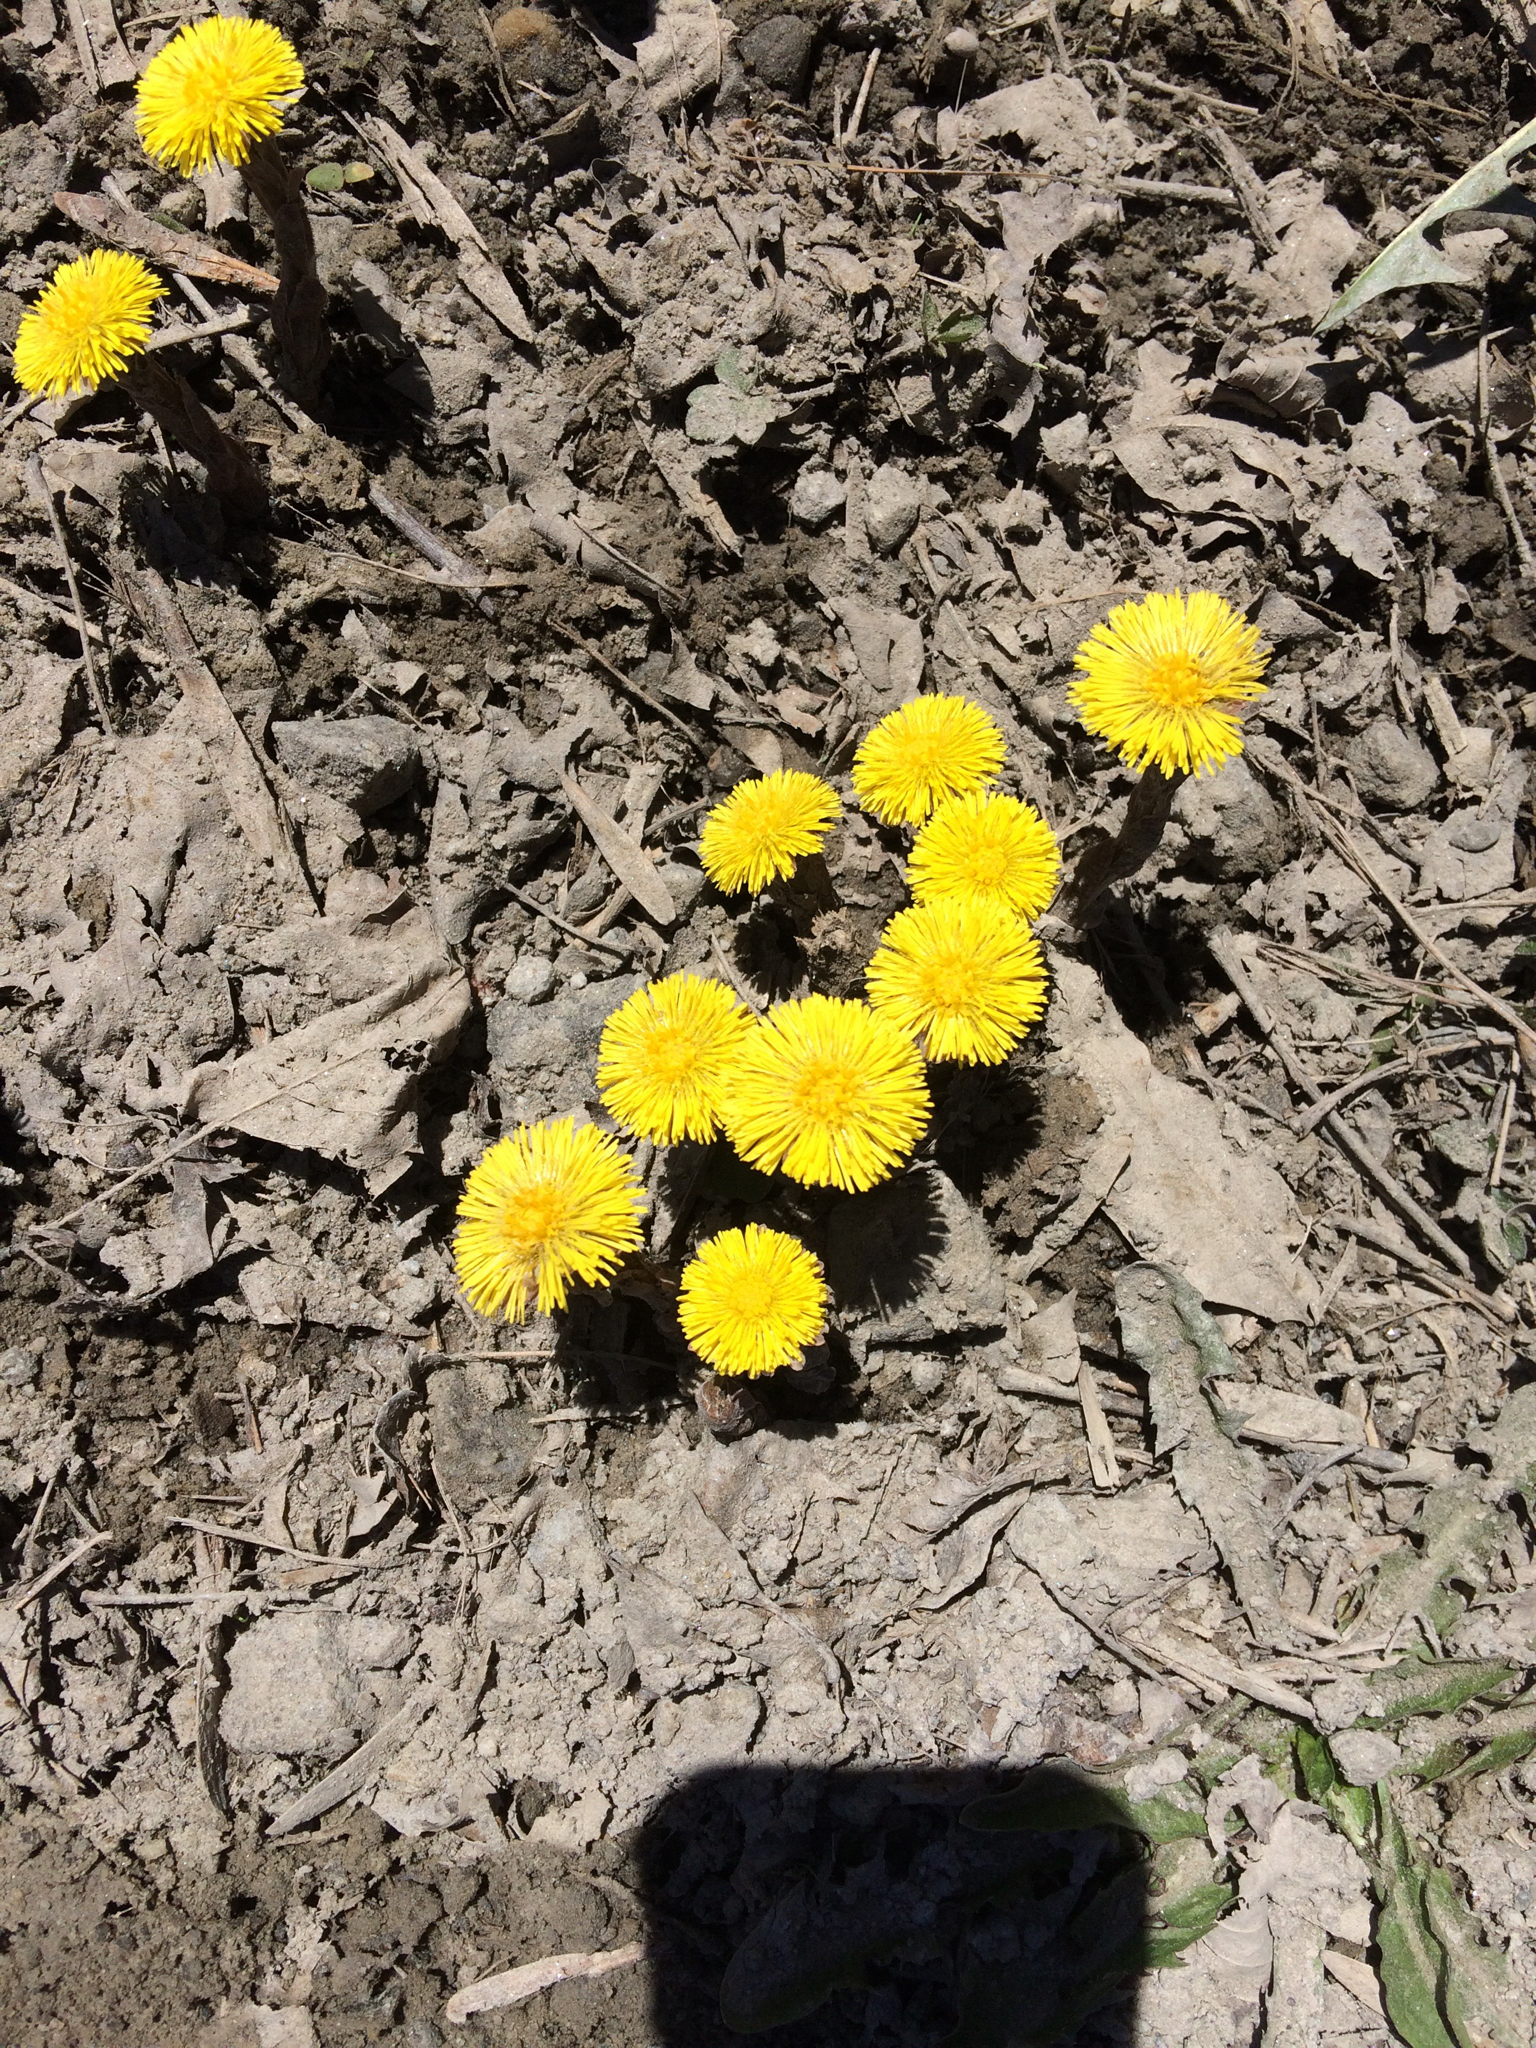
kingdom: Plantae
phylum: Tracheophyta
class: Magnoliopsida
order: Asterales
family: Asteraceae
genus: Tussilago
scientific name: Tussilago farfara
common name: Coltsfoot
